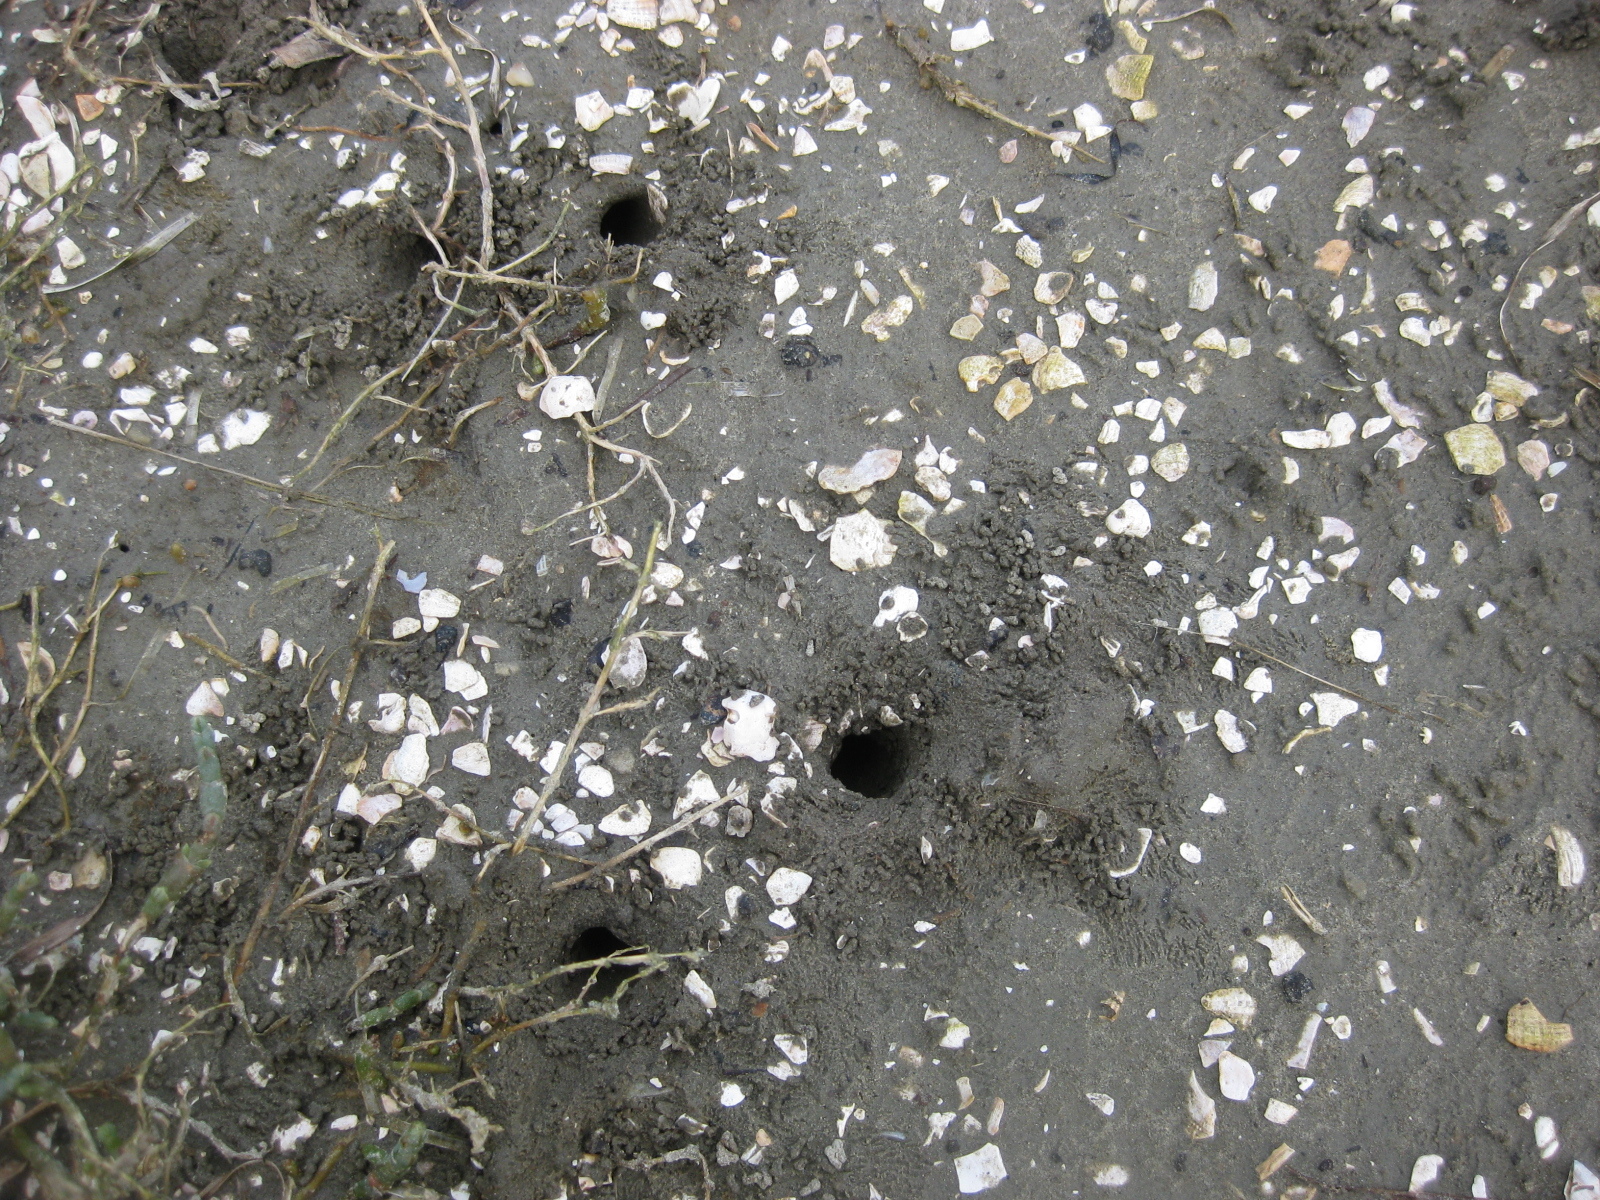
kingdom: Animalia
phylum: Arthropoda
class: Malacostraca
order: Decapoda
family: Varunidae
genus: Austrohelice
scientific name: Austrohelice crassa
